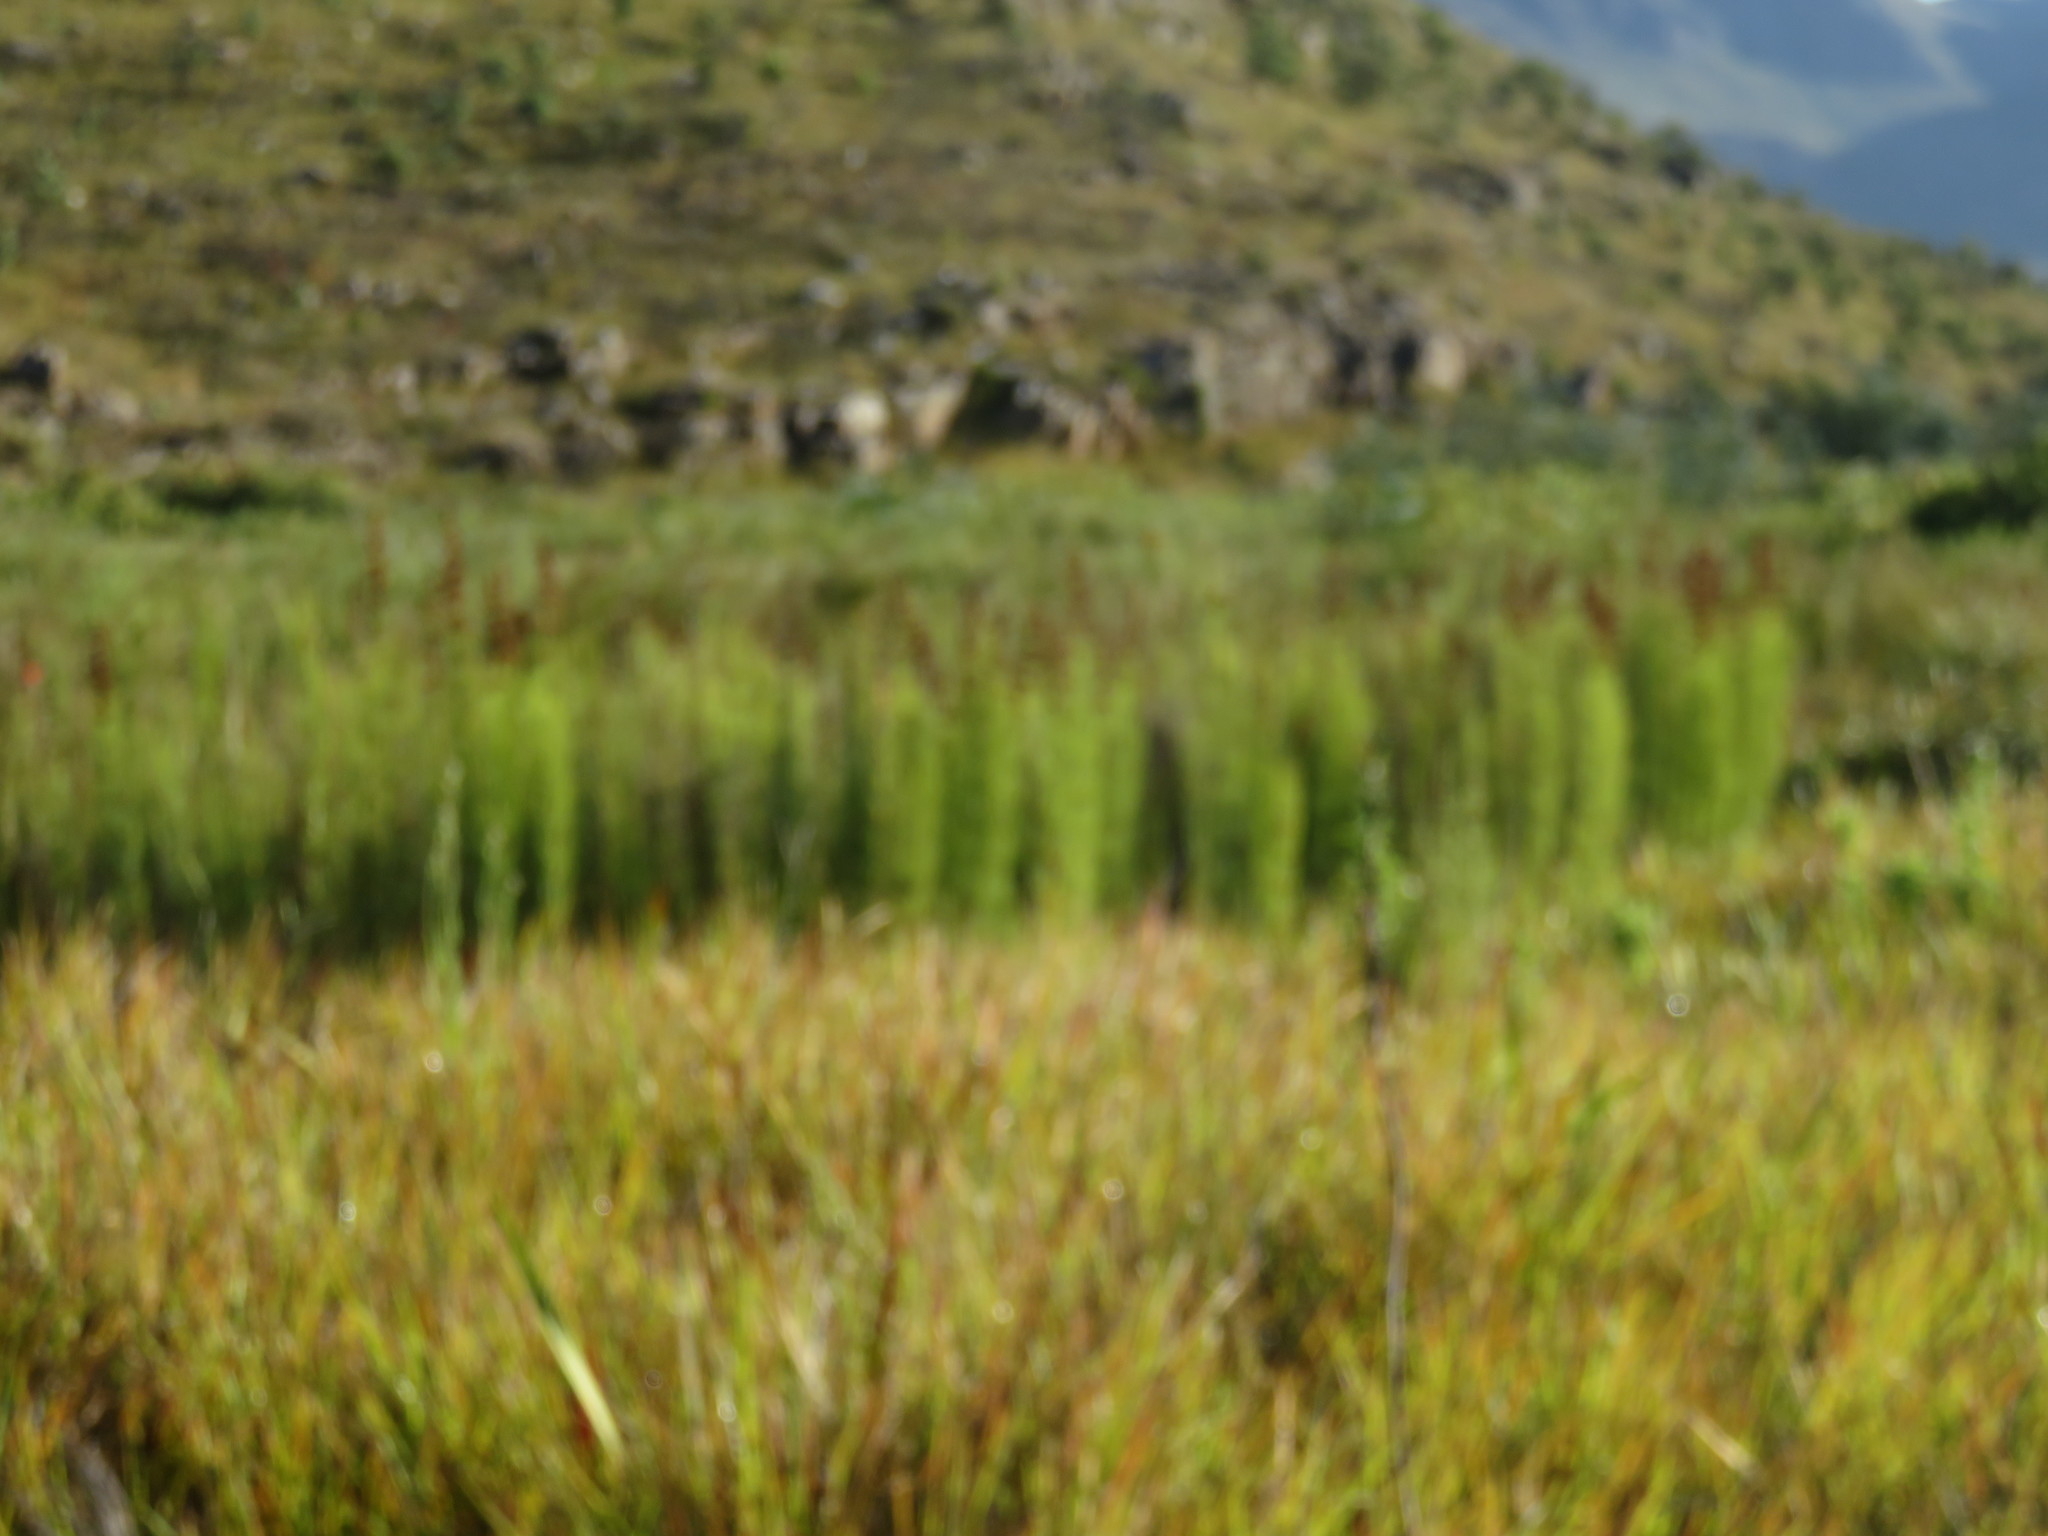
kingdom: Plantae
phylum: Tracheophyta
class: Liliopsida
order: Poales
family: Restionaceae
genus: Elegia
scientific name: Elegia capensis
